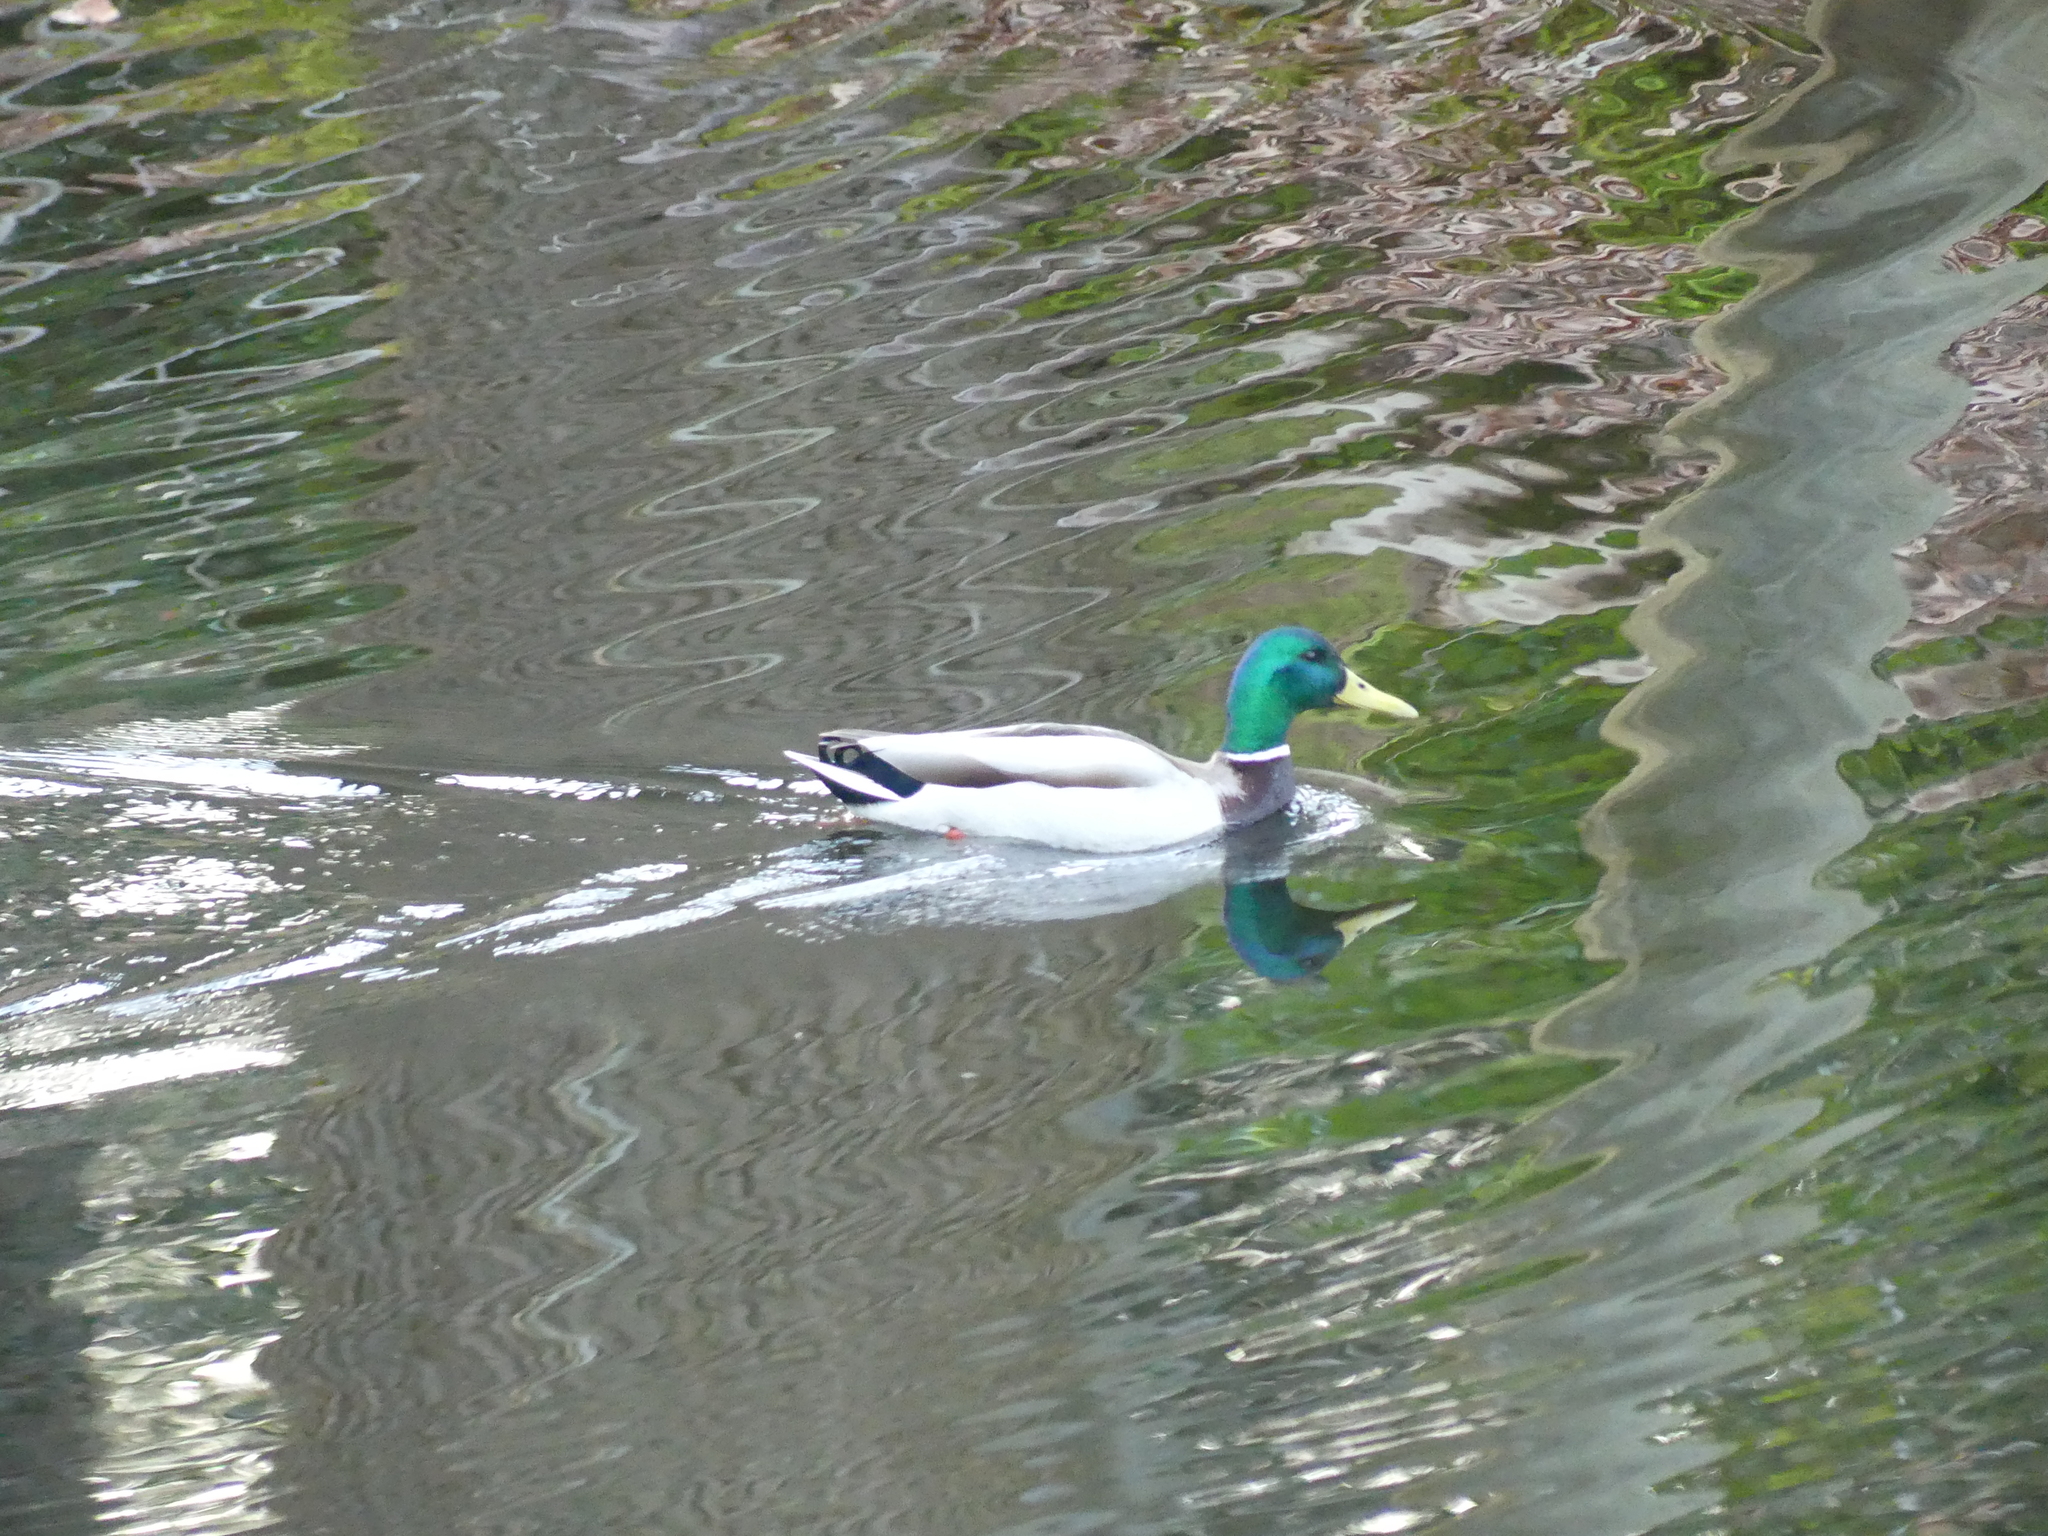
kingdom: Animalia
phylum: Chordata
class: Aves
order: Anseriformes
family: Anatidae
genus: Anas
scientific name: Anas platyrhynchos
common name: Mallard
